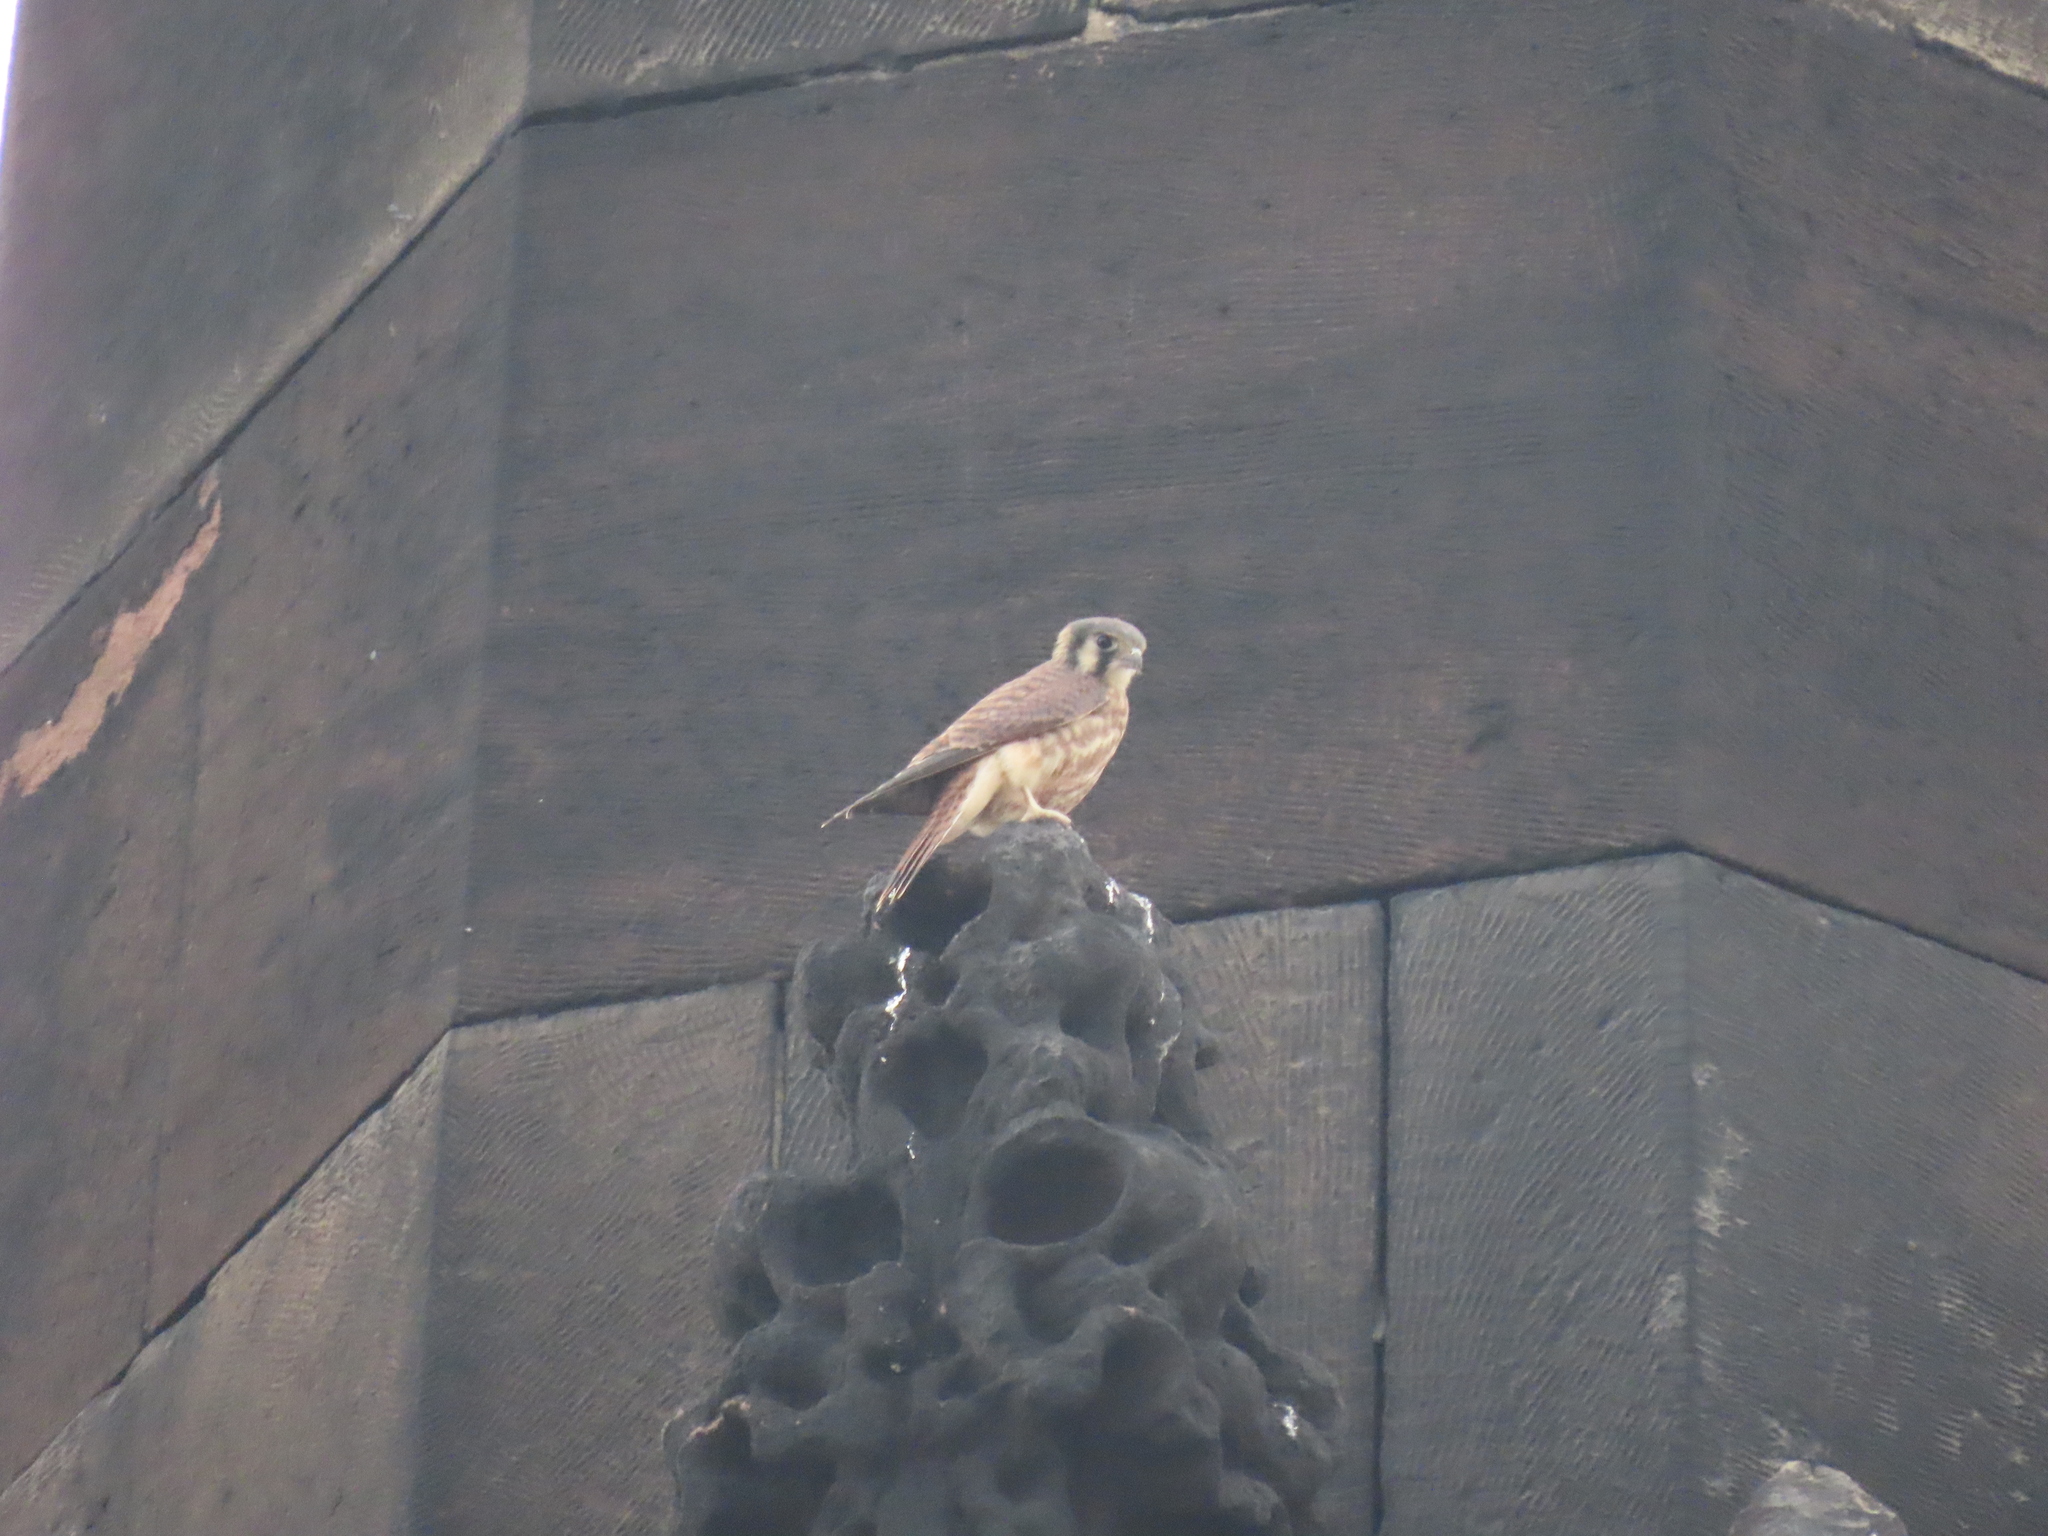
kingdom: Animalia
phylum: Chordata
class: Aves
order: Falconiformes
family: Falconidae
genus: Falco
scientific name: Falco sparverius
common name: American kestrel
